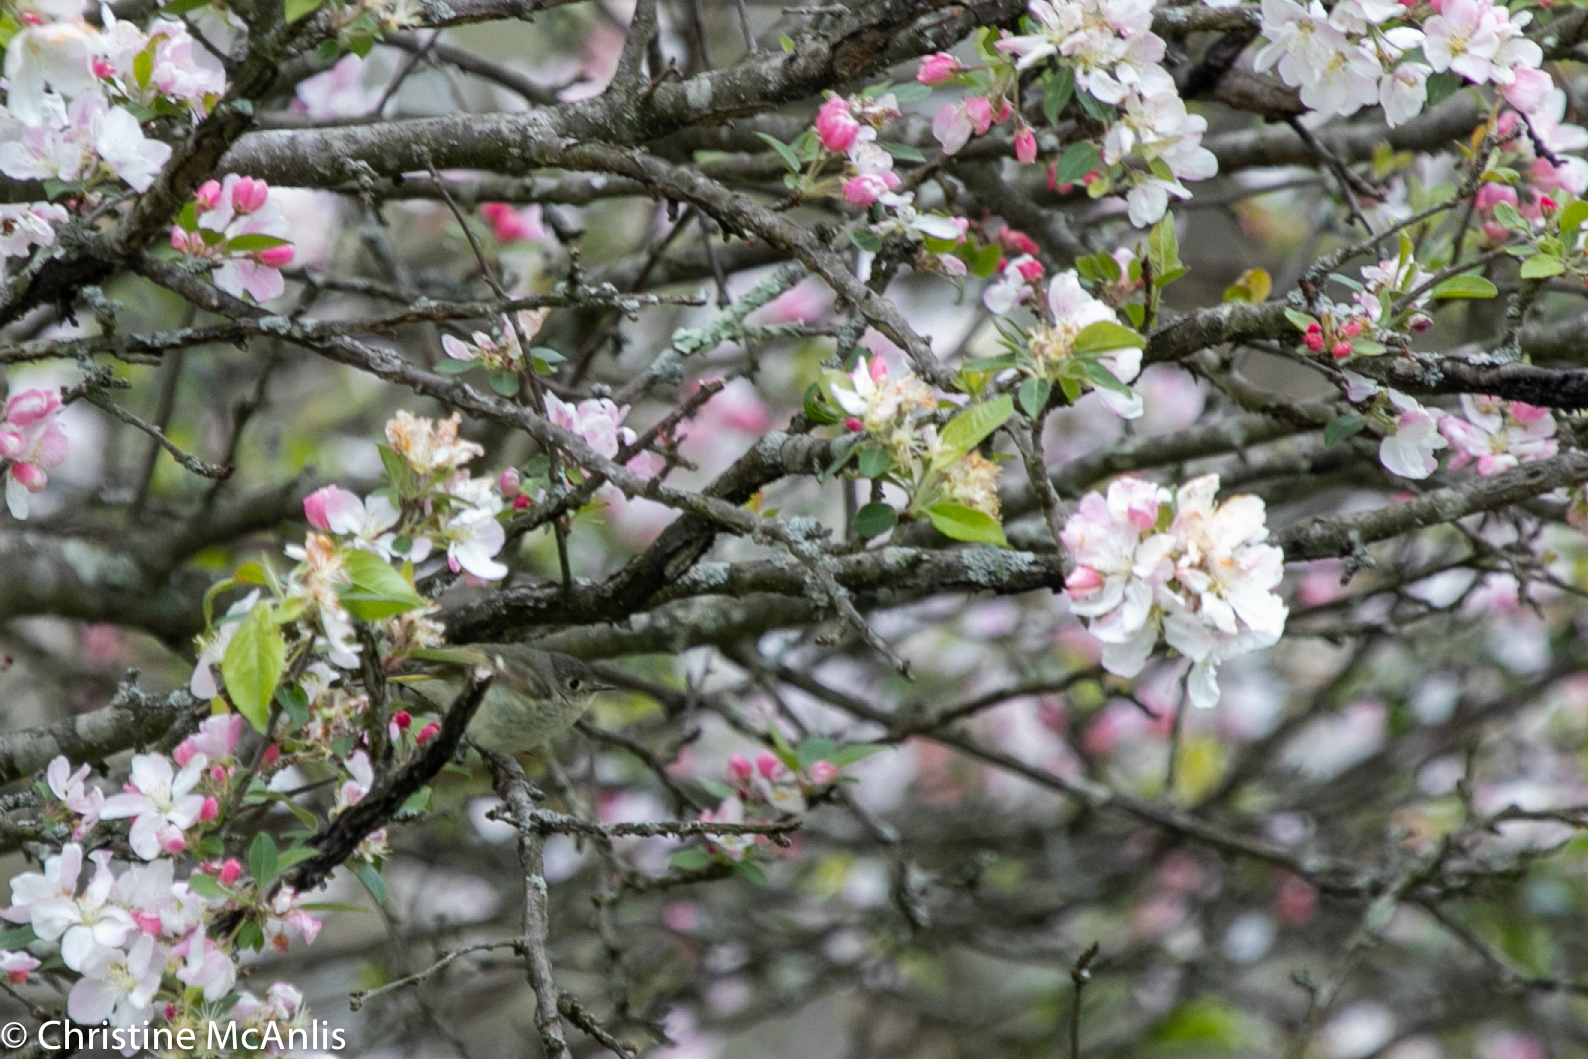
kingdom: Animalia
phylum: Chordata
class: Aves
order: Passeriformes
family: Regulidae
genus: Regulus
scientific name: Regulus calendula
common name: Ruby-crowned kinglet
